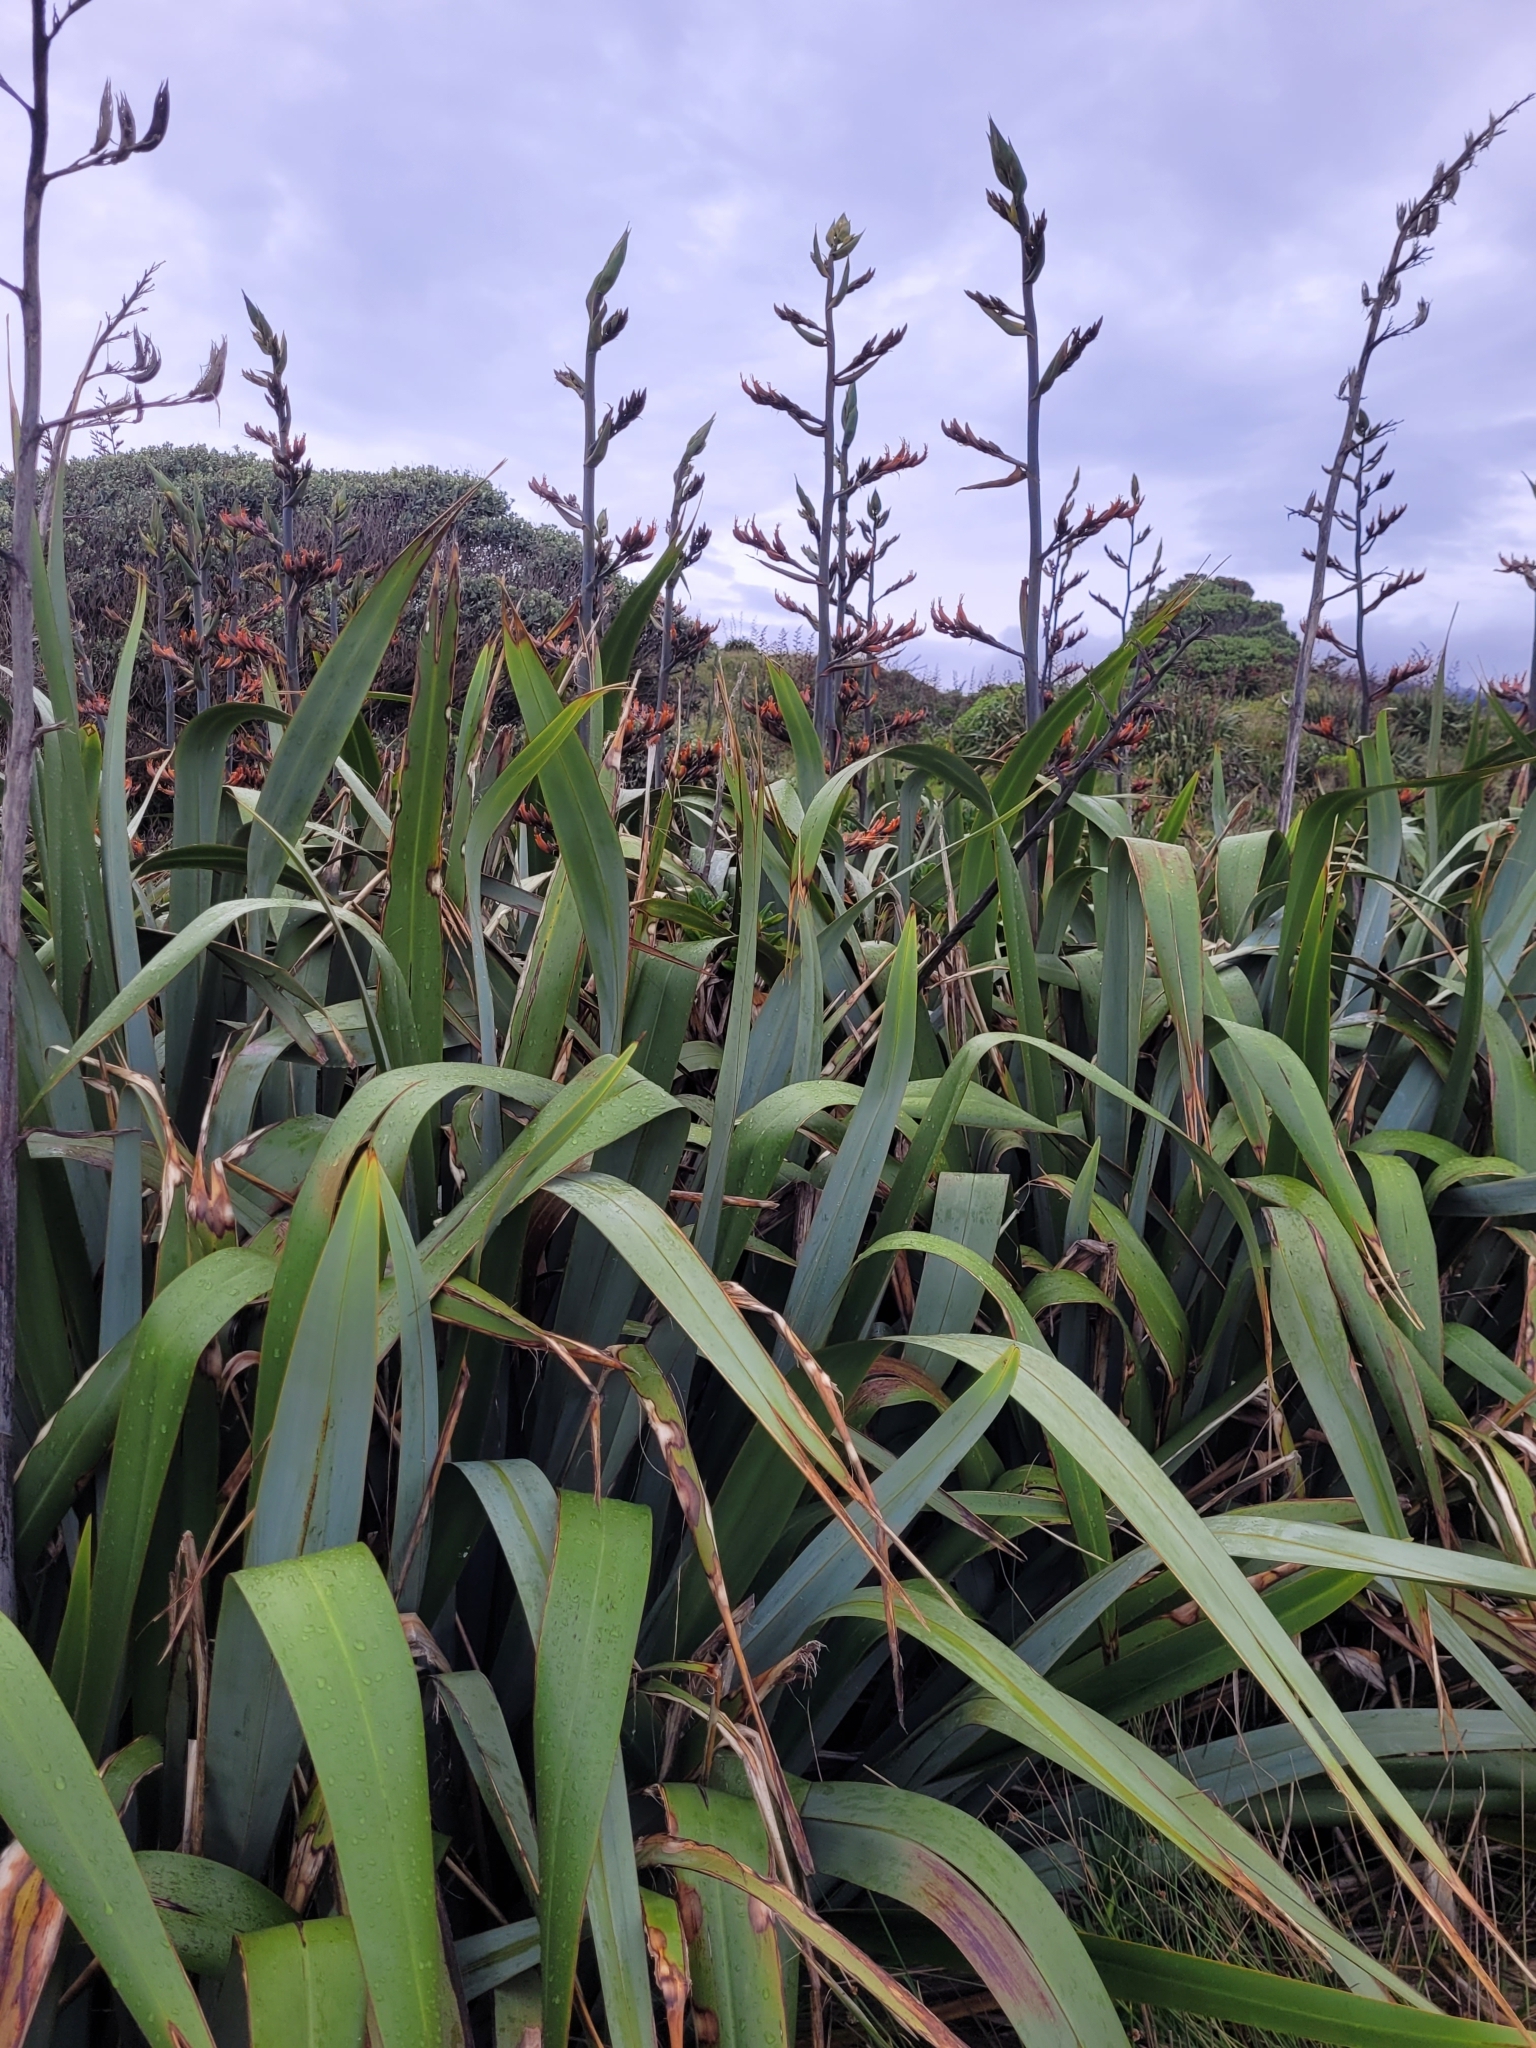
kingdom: Plantae
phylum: Tracheophyta
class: Liliopsida
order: Asparagales
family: Asphodelaceae
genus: Phormium
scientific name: Phormium tenax
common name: New zealand flax
